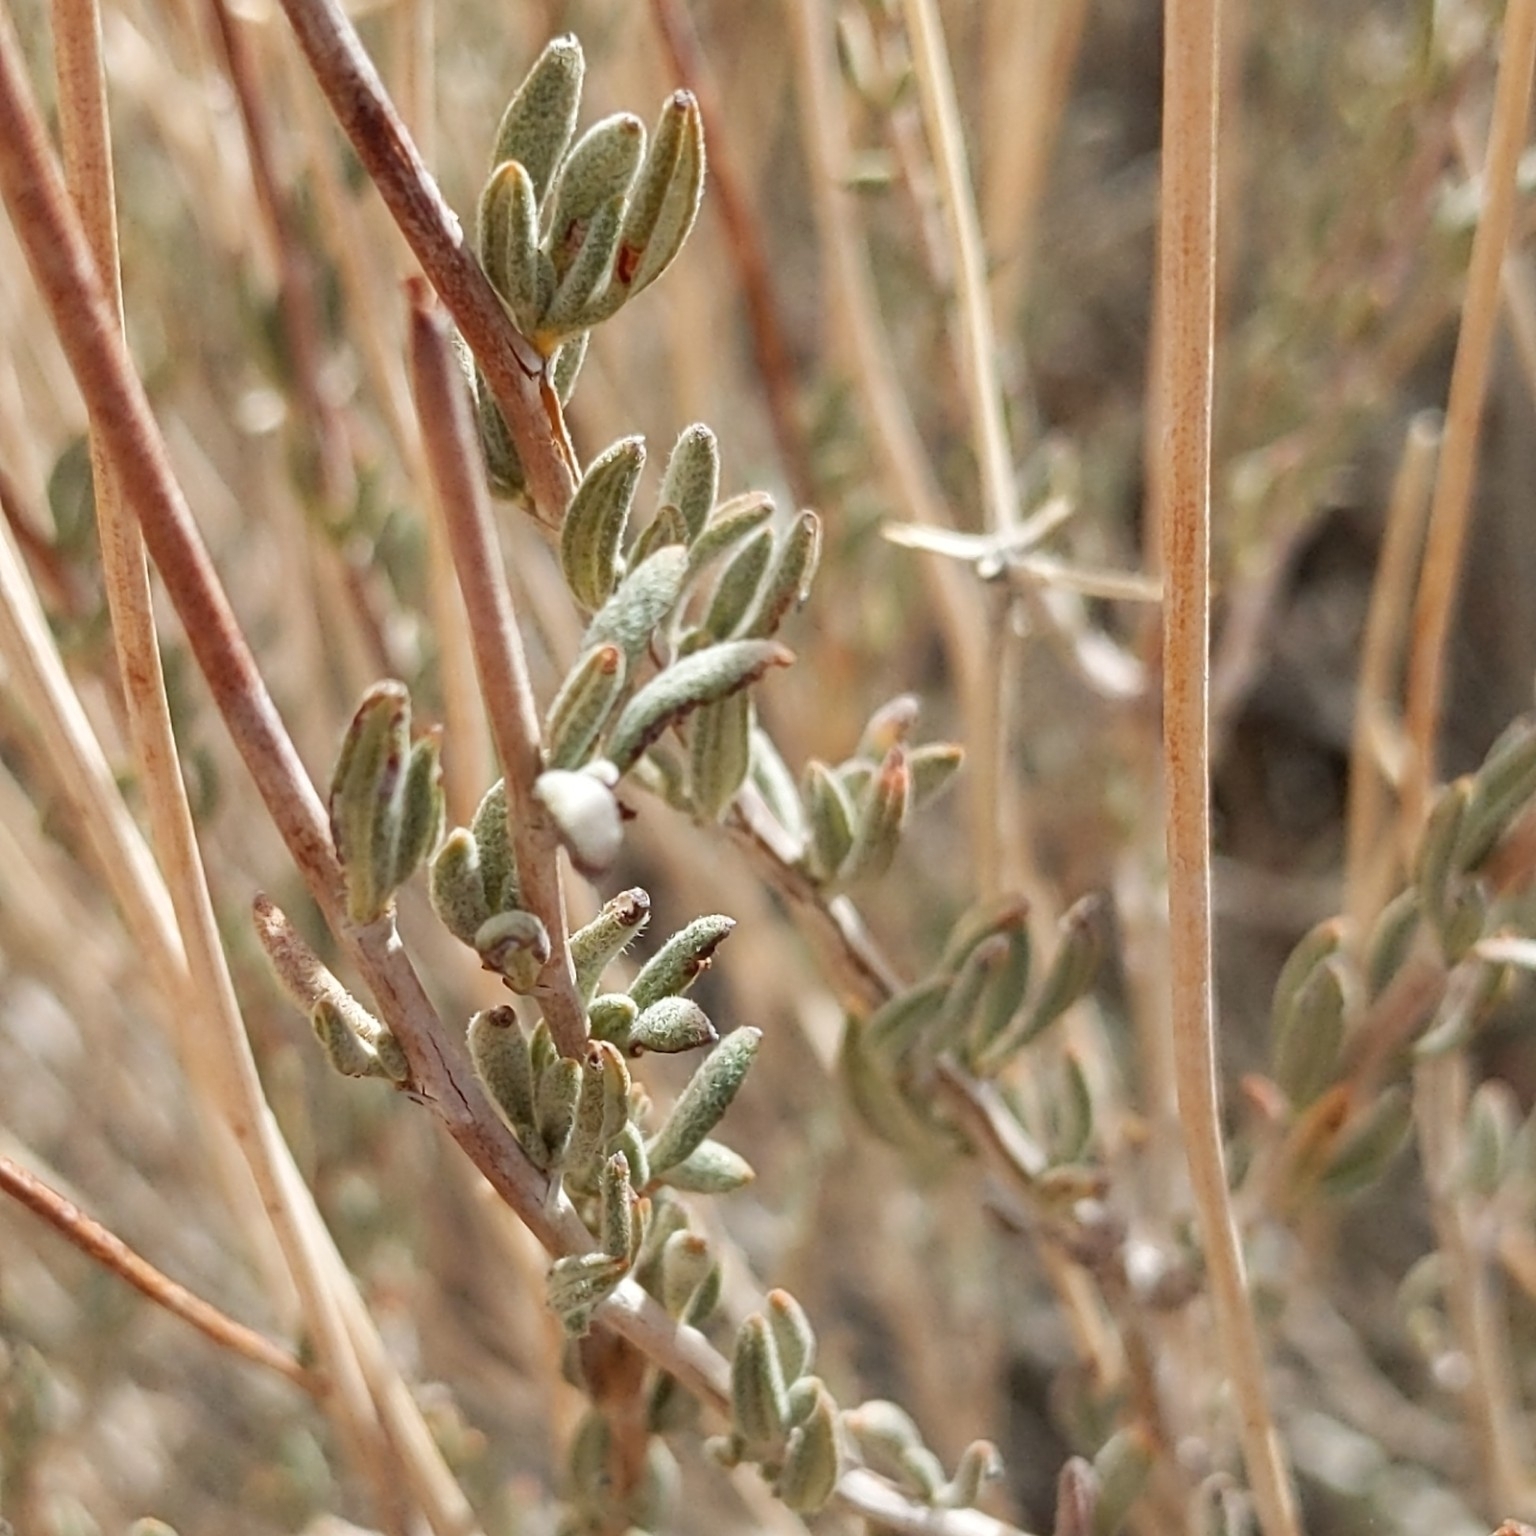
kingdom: Plantae
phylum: Tracheophyta
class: Magnoliopsida
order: Caryophyllales
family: Polygonaceae
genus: Eriogonum
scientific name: Eriogonum fasciculatum
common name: California wild buckwheat
